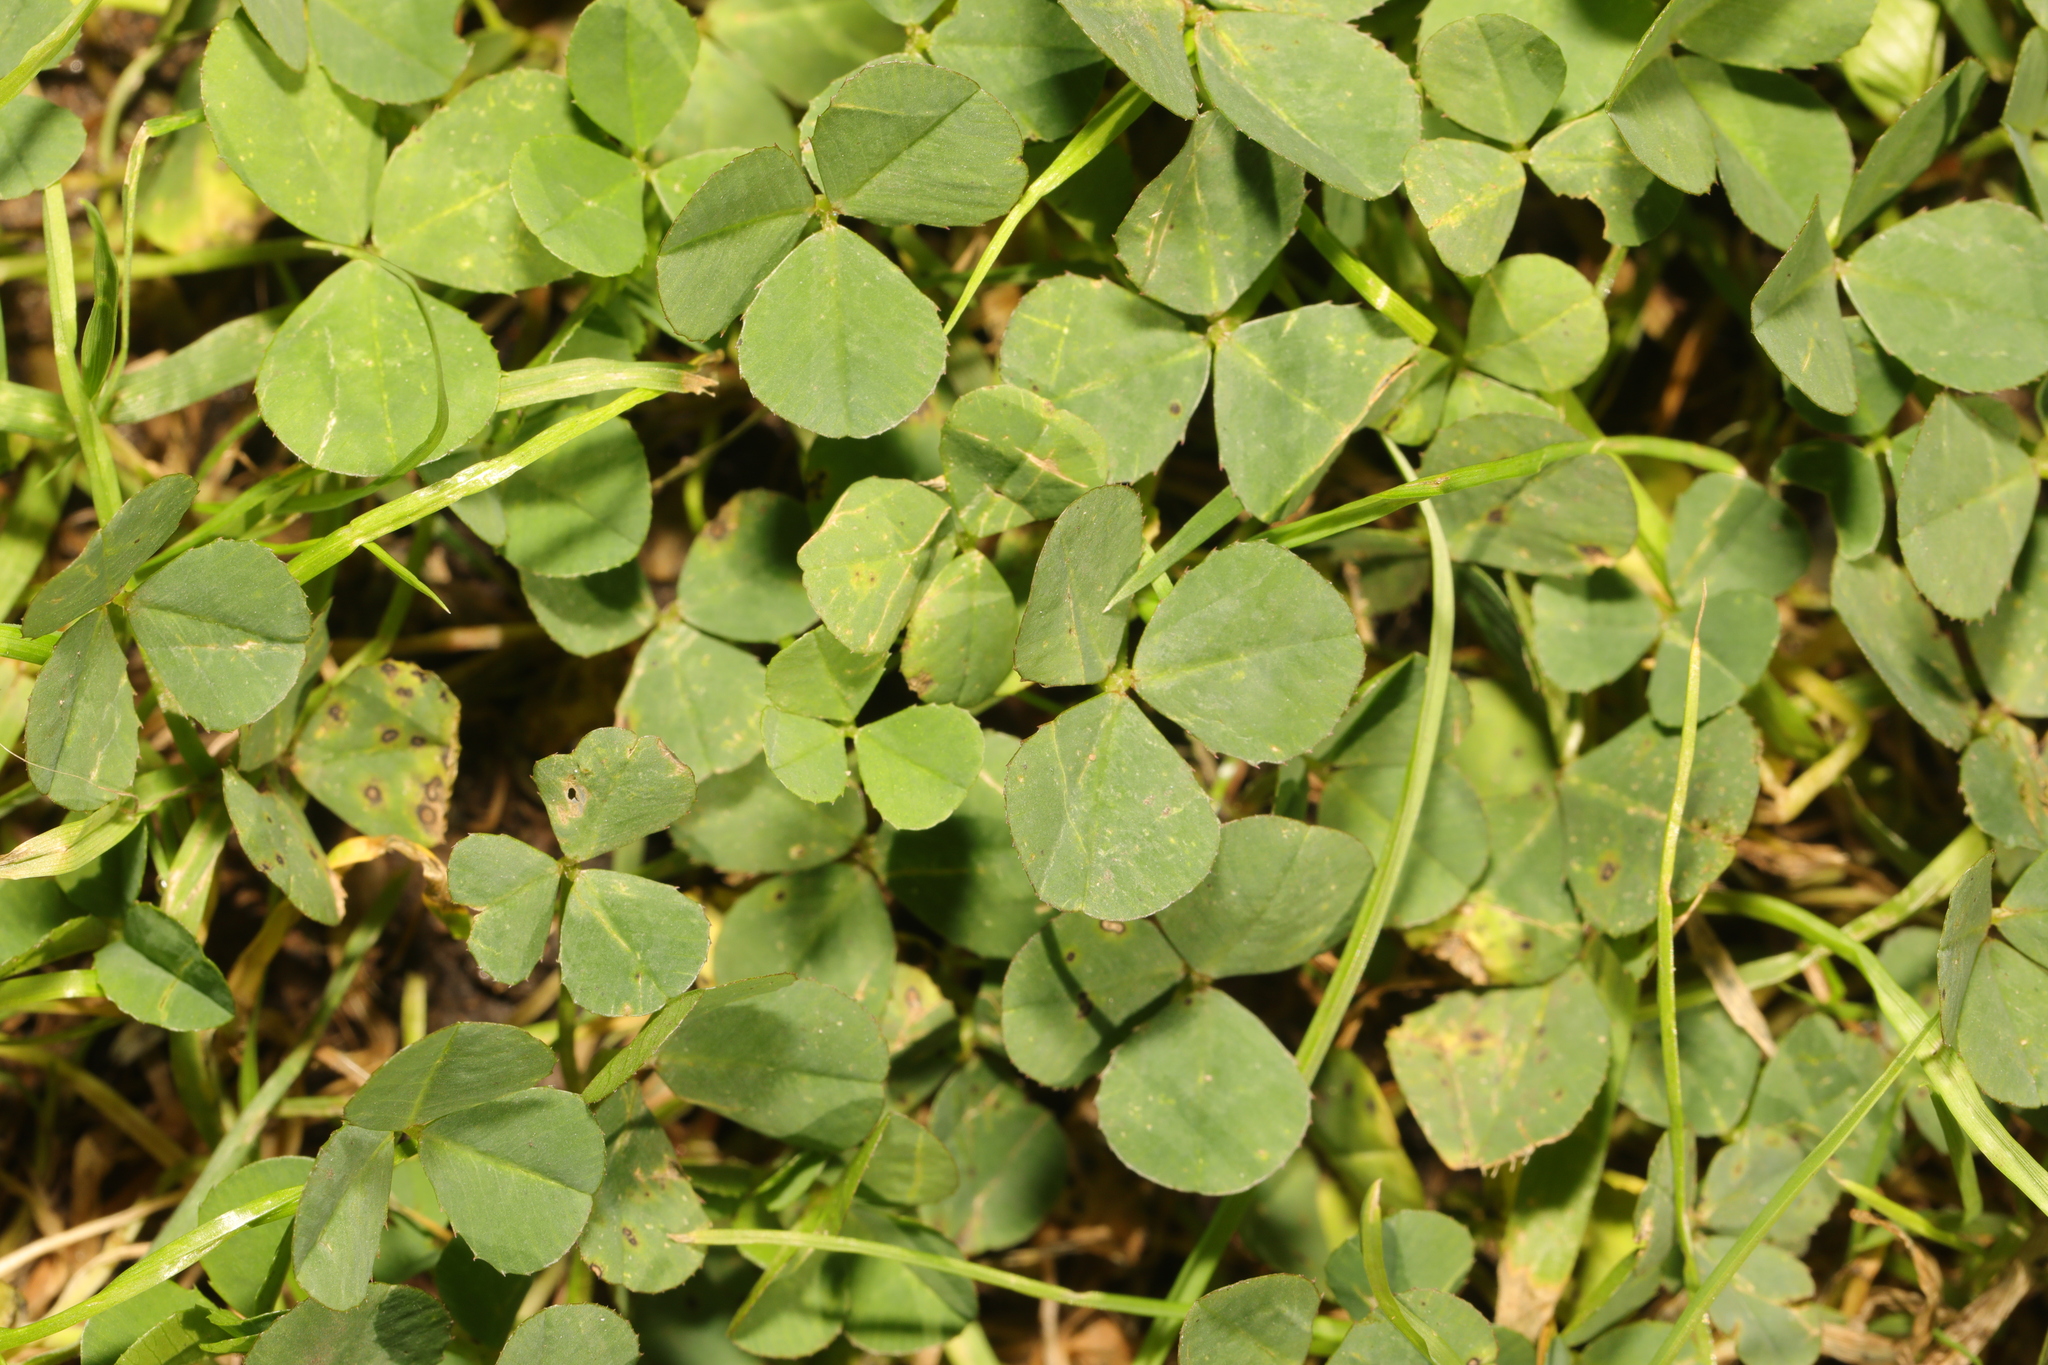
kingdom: Plantae
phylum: Tracheophyta
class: Magnoliopsida
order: Fabales
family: Fabaceae
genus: Trifolium
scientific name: Trifolium repens
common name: White clover
